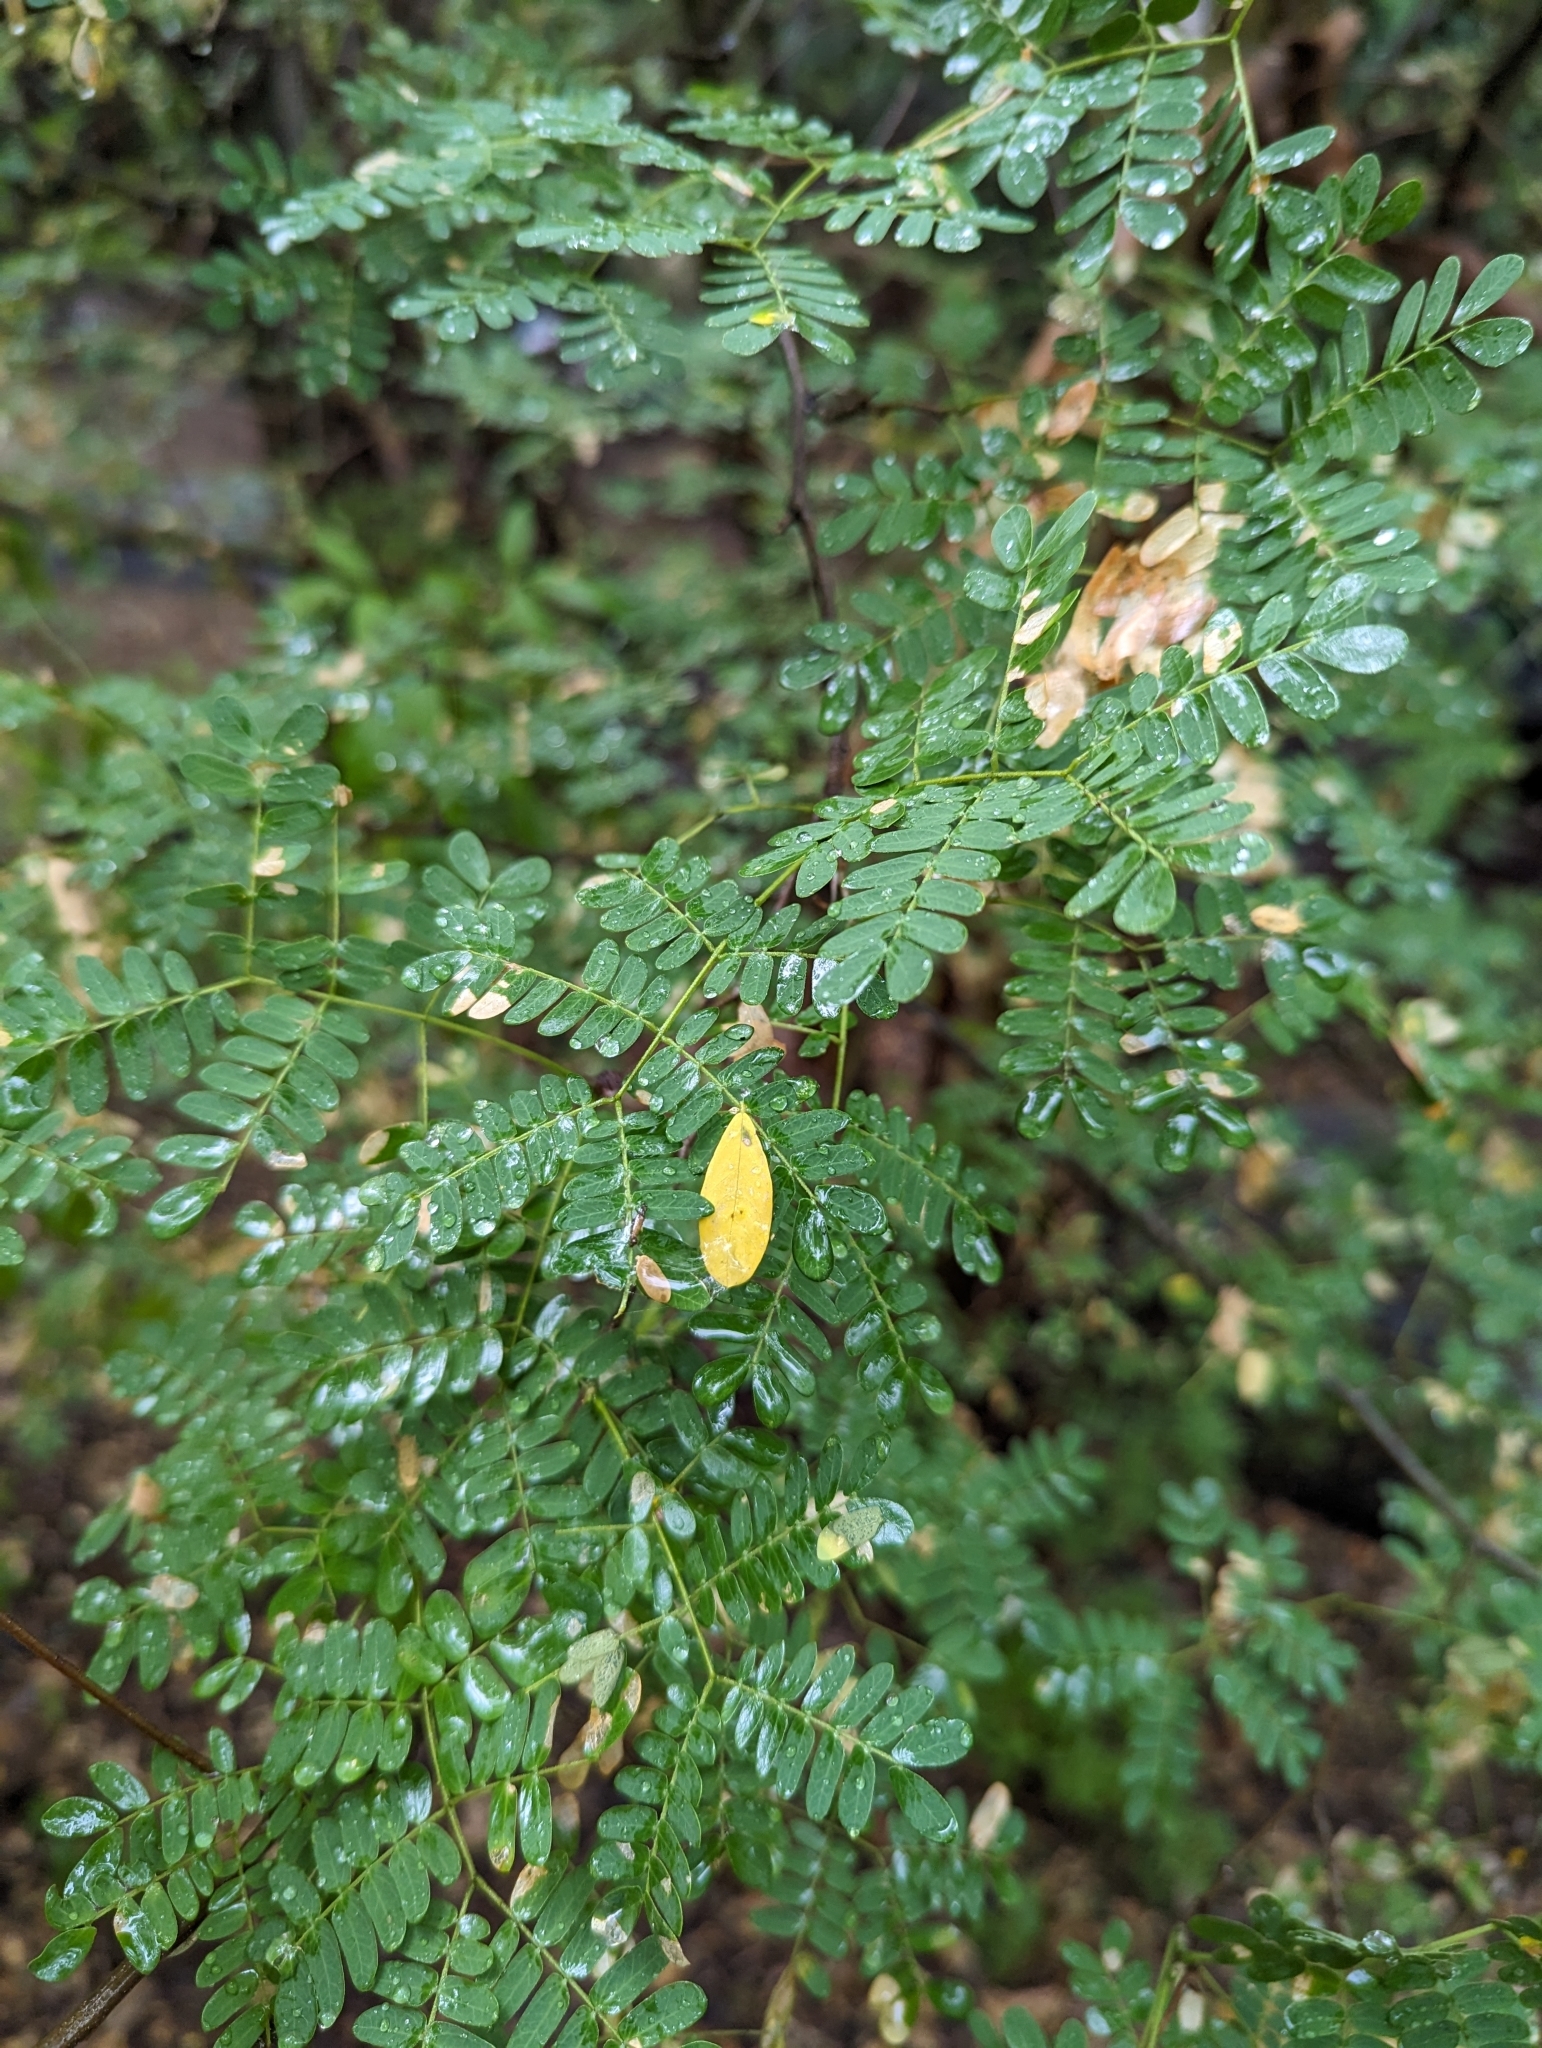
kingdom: Plantae
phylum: Tracheophyta
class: Magnoliopsida
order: Fabales
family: Fabaceae
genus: Chloroleucon
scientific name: Chloroleucon mangense
